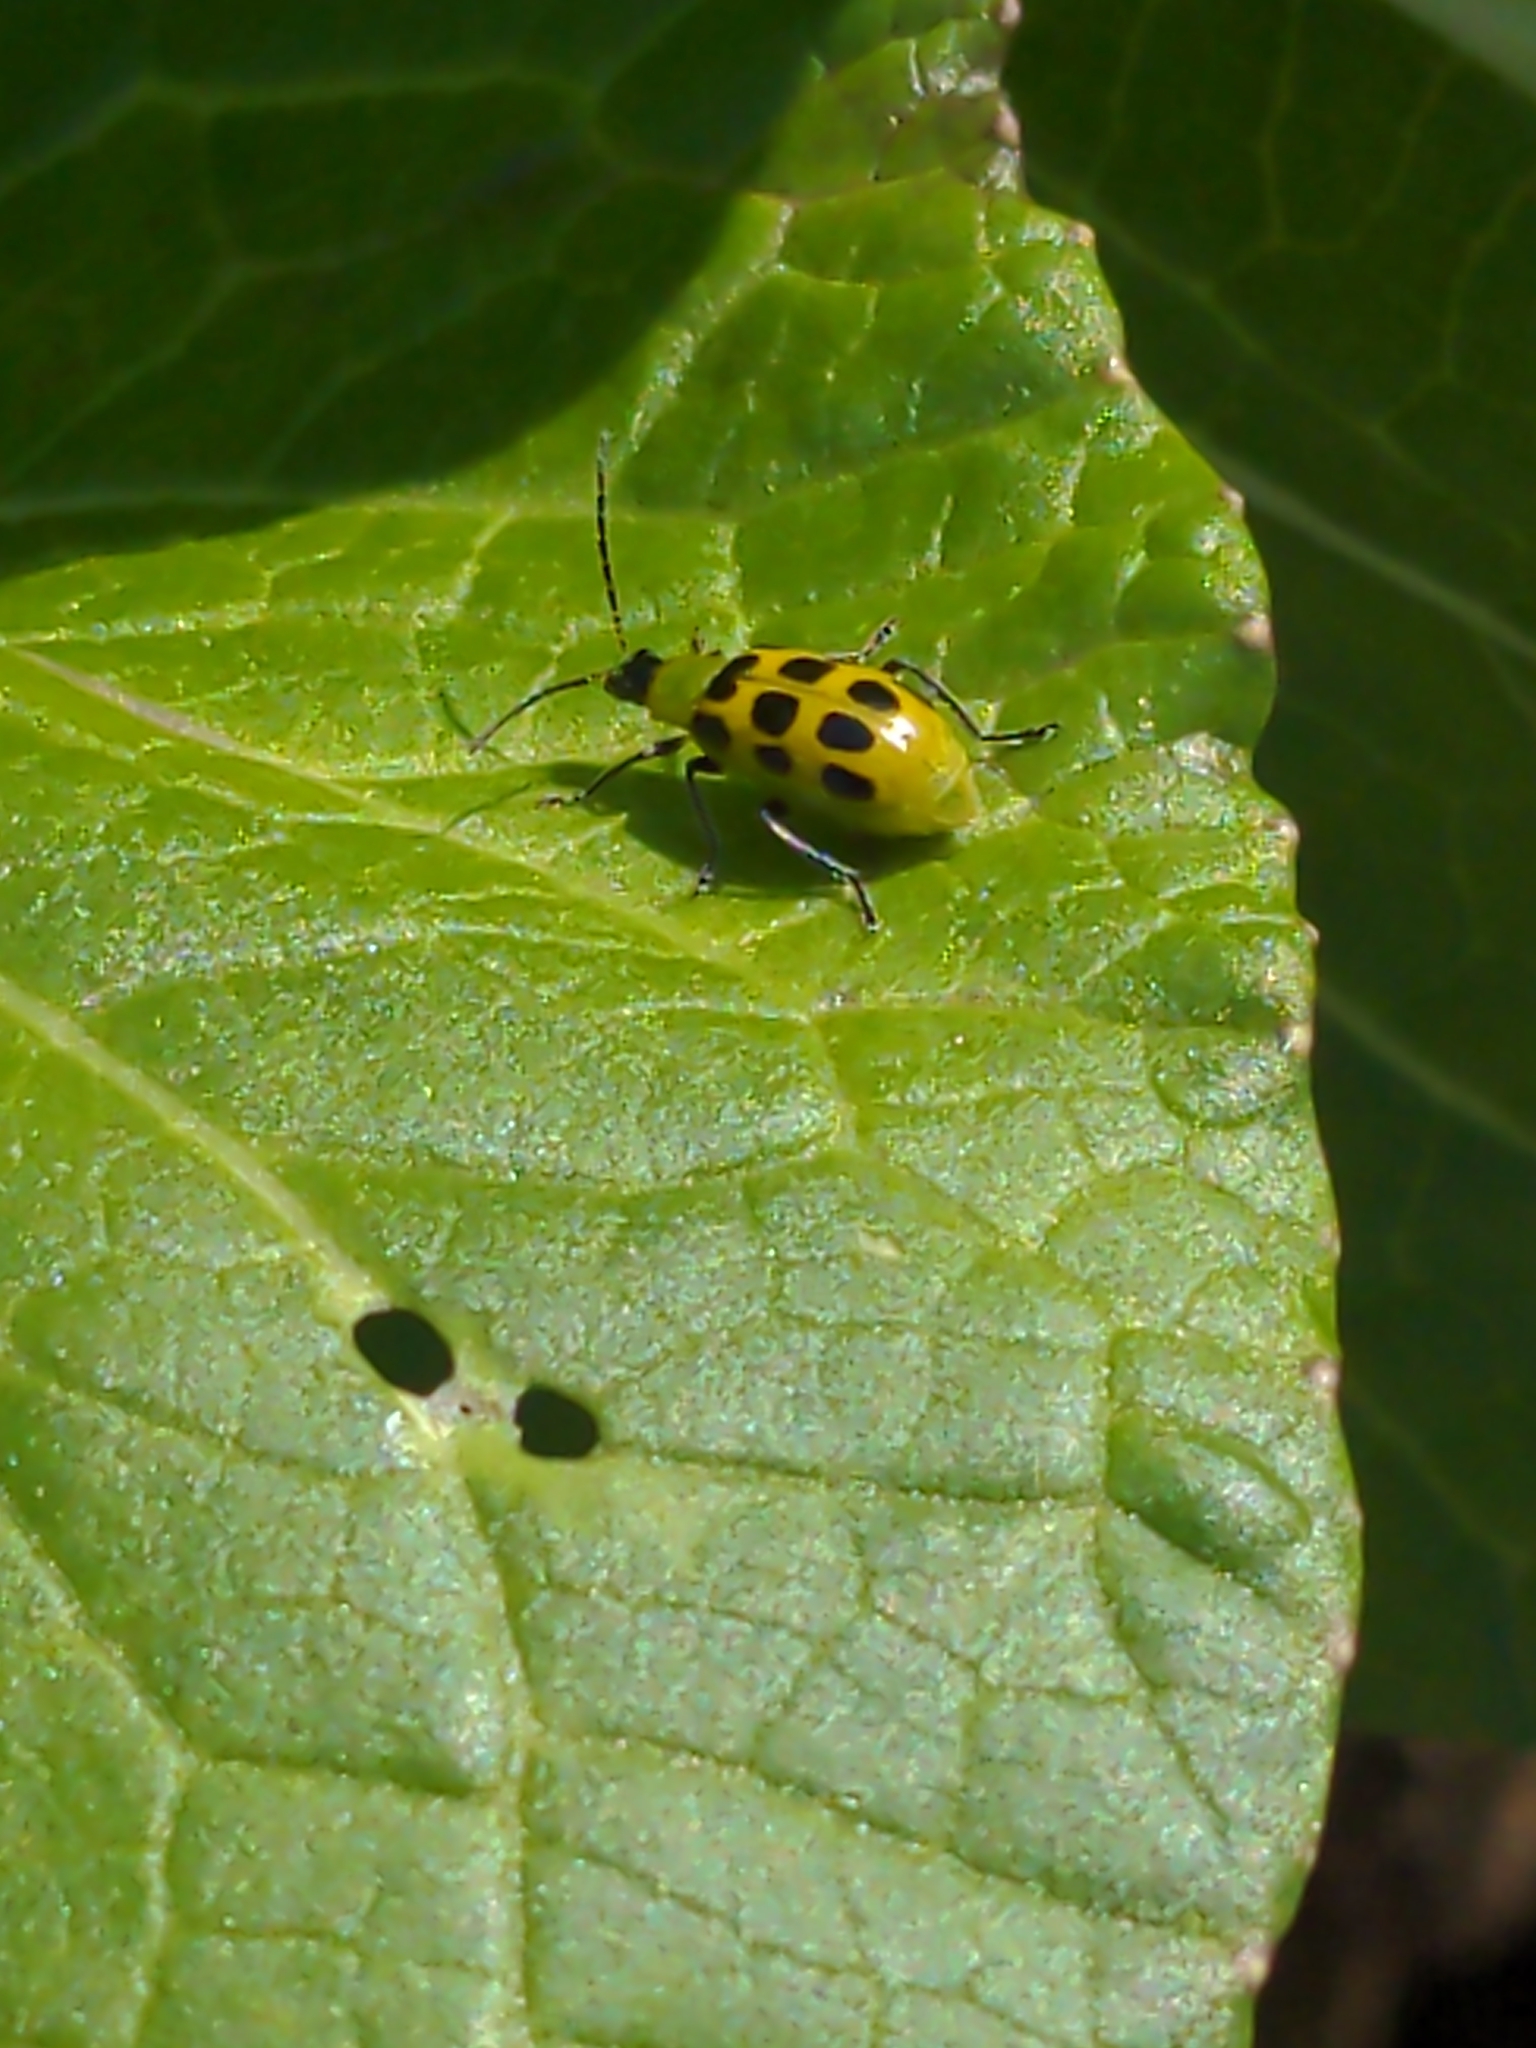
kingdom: Animalia
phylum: Arthropoda
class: Insecta
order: Coleoptera
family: Chrysomelidae
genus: Diabrotica
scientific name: Diabrotica undecimpunctata
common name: Spotted cucumber beetle
